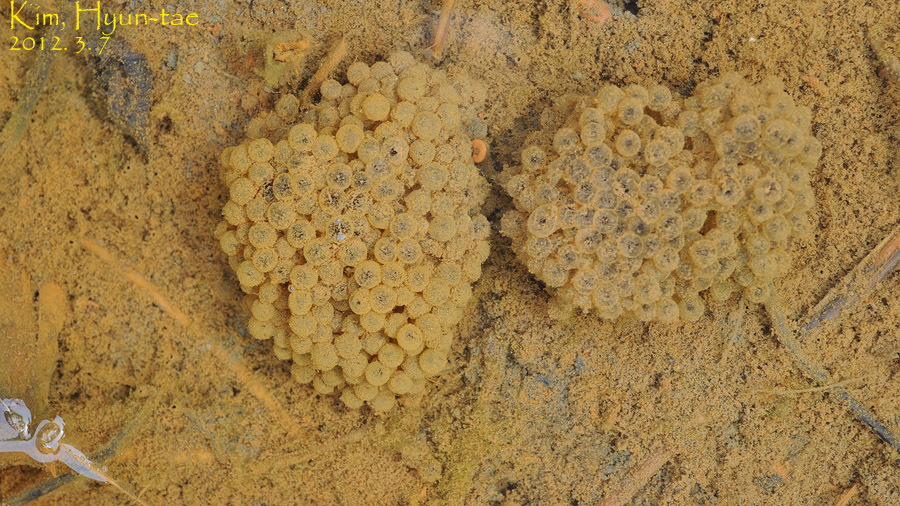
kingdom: Animalia
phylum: Chordata
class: Amphibia
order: Anura
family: Ranidae
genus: Rana
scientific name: Rana uenoi
